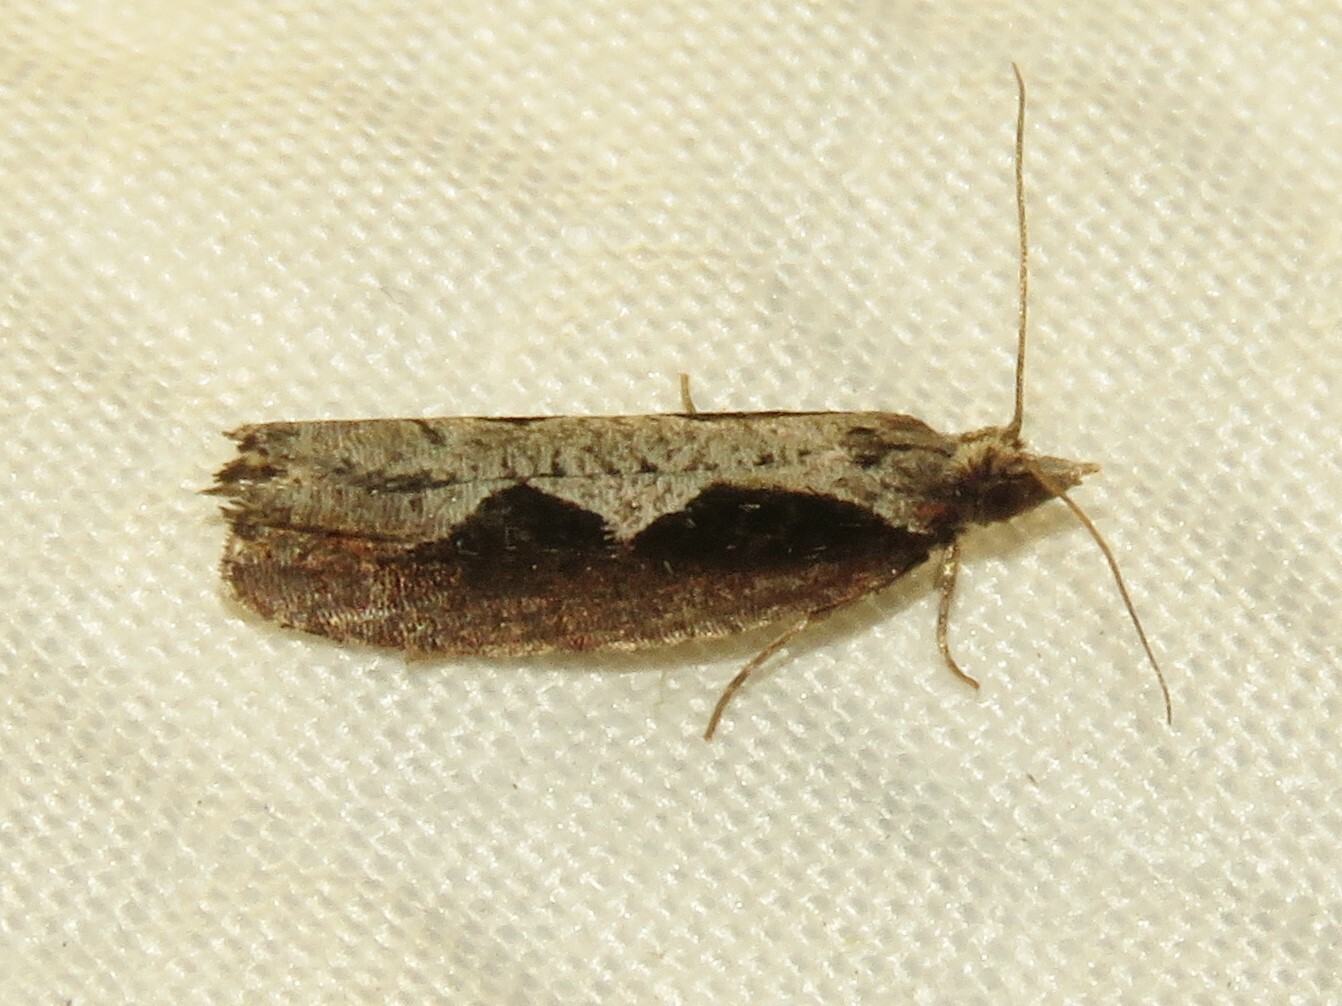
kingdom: Animalia
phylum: Arthropoda
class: Insecta
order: Lepidoptera
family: Tortricidae
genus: Epinotia
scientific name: Epinotia lindana
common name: Diamondback epinotia moth
